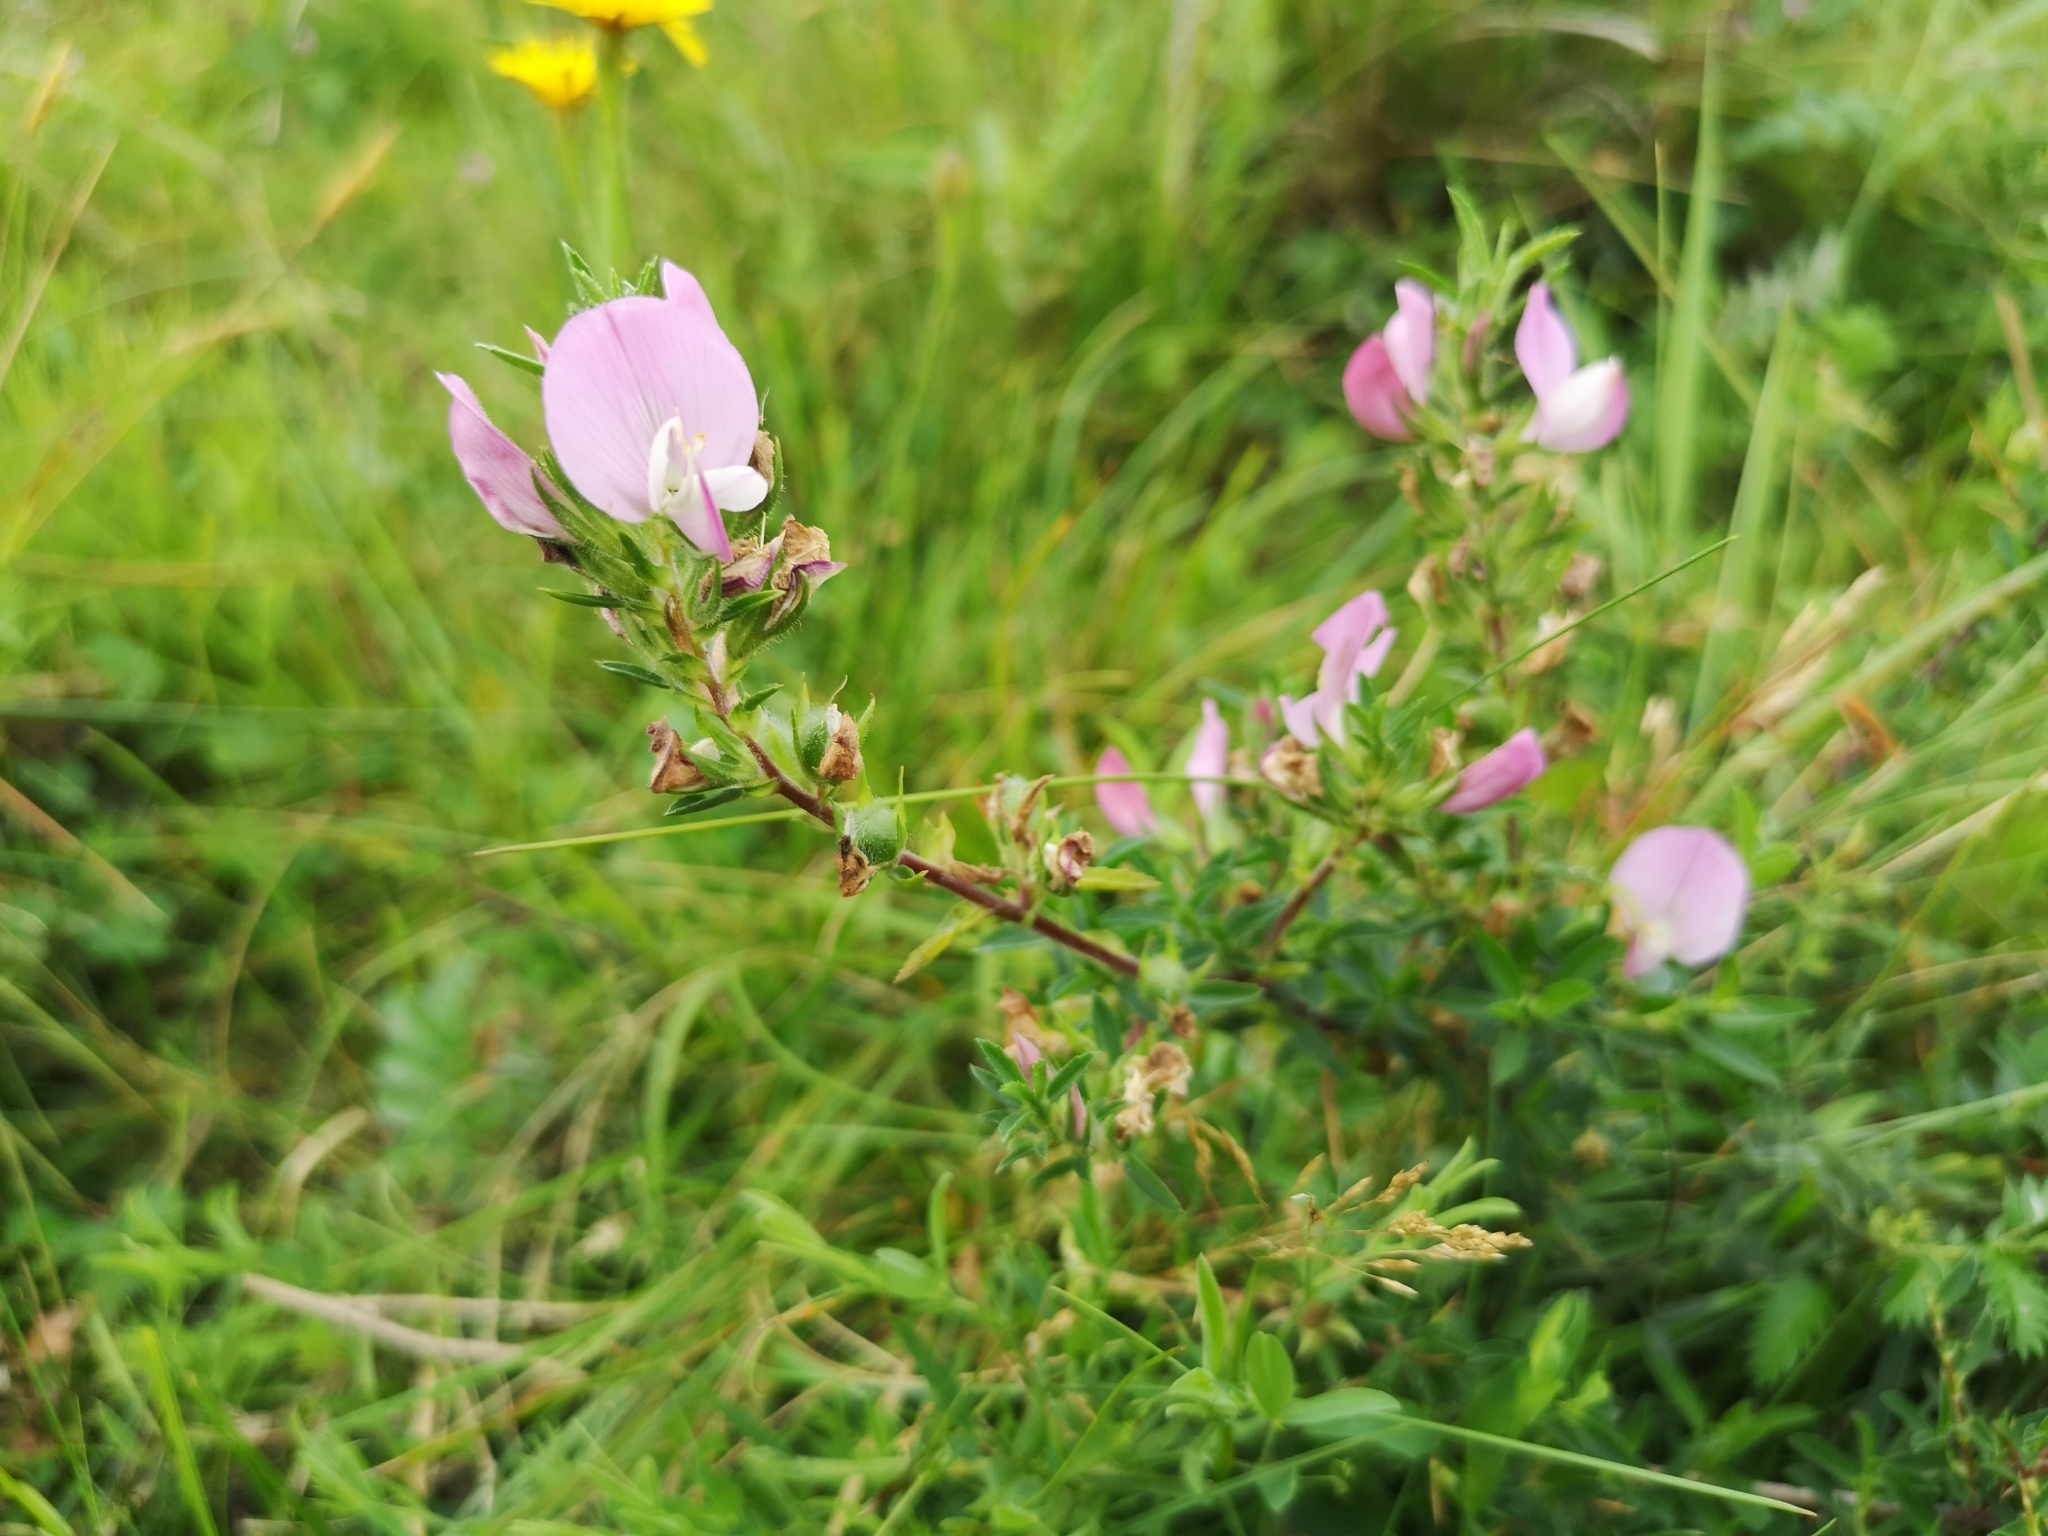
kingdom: Plantae
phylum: Tracheophyta
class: Magnoliopsida
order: Fabales
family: Fabaceae
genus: Ononis
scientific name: Ononis spinosa
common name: Spiny restharrow
